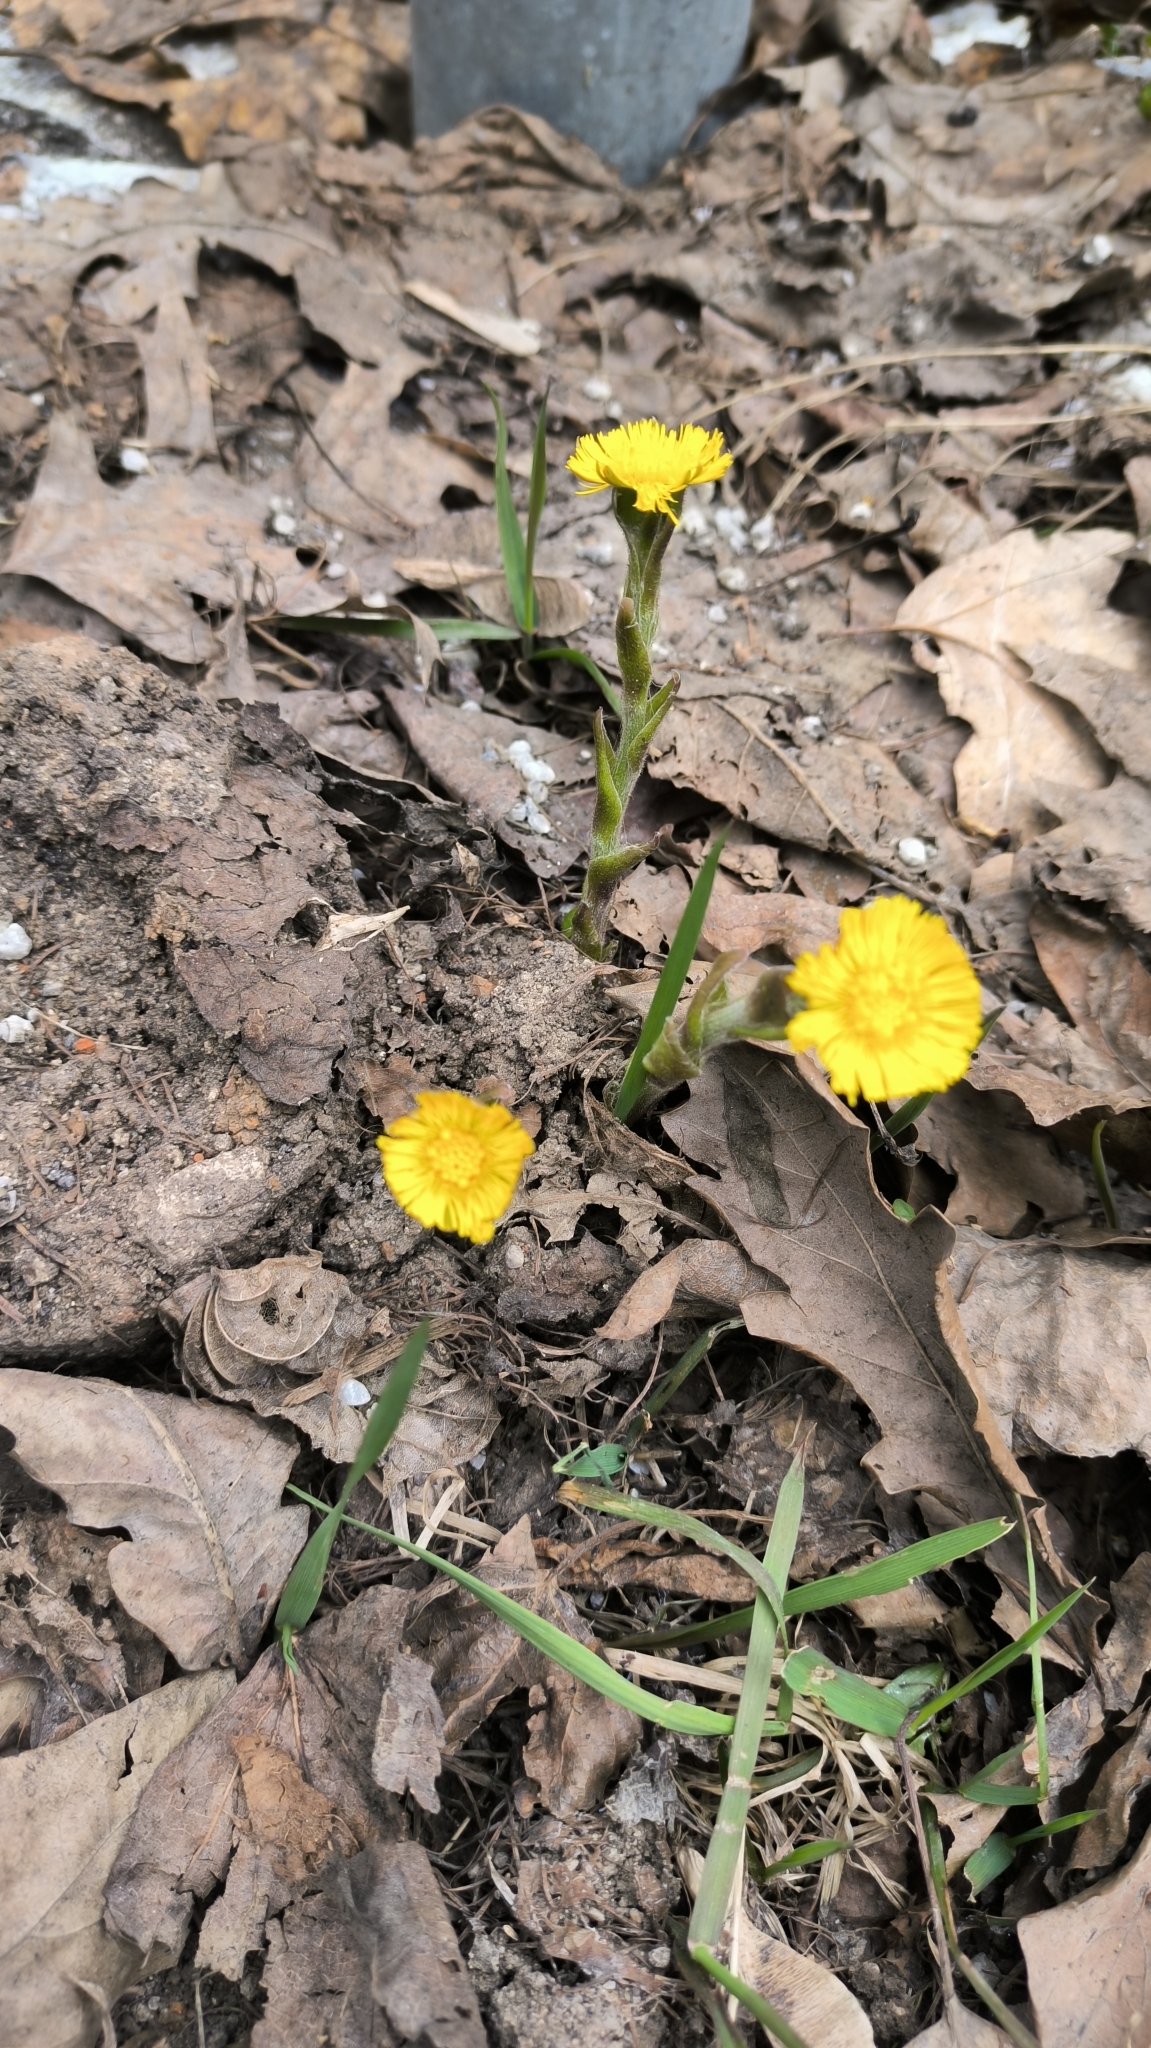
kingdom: Plantae
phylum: Tracheophyta
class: Magnoliopsida
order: Asterales
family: Asteraceae
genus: Tussilago
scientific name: Tussilago farfara
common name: Coltsfoot
